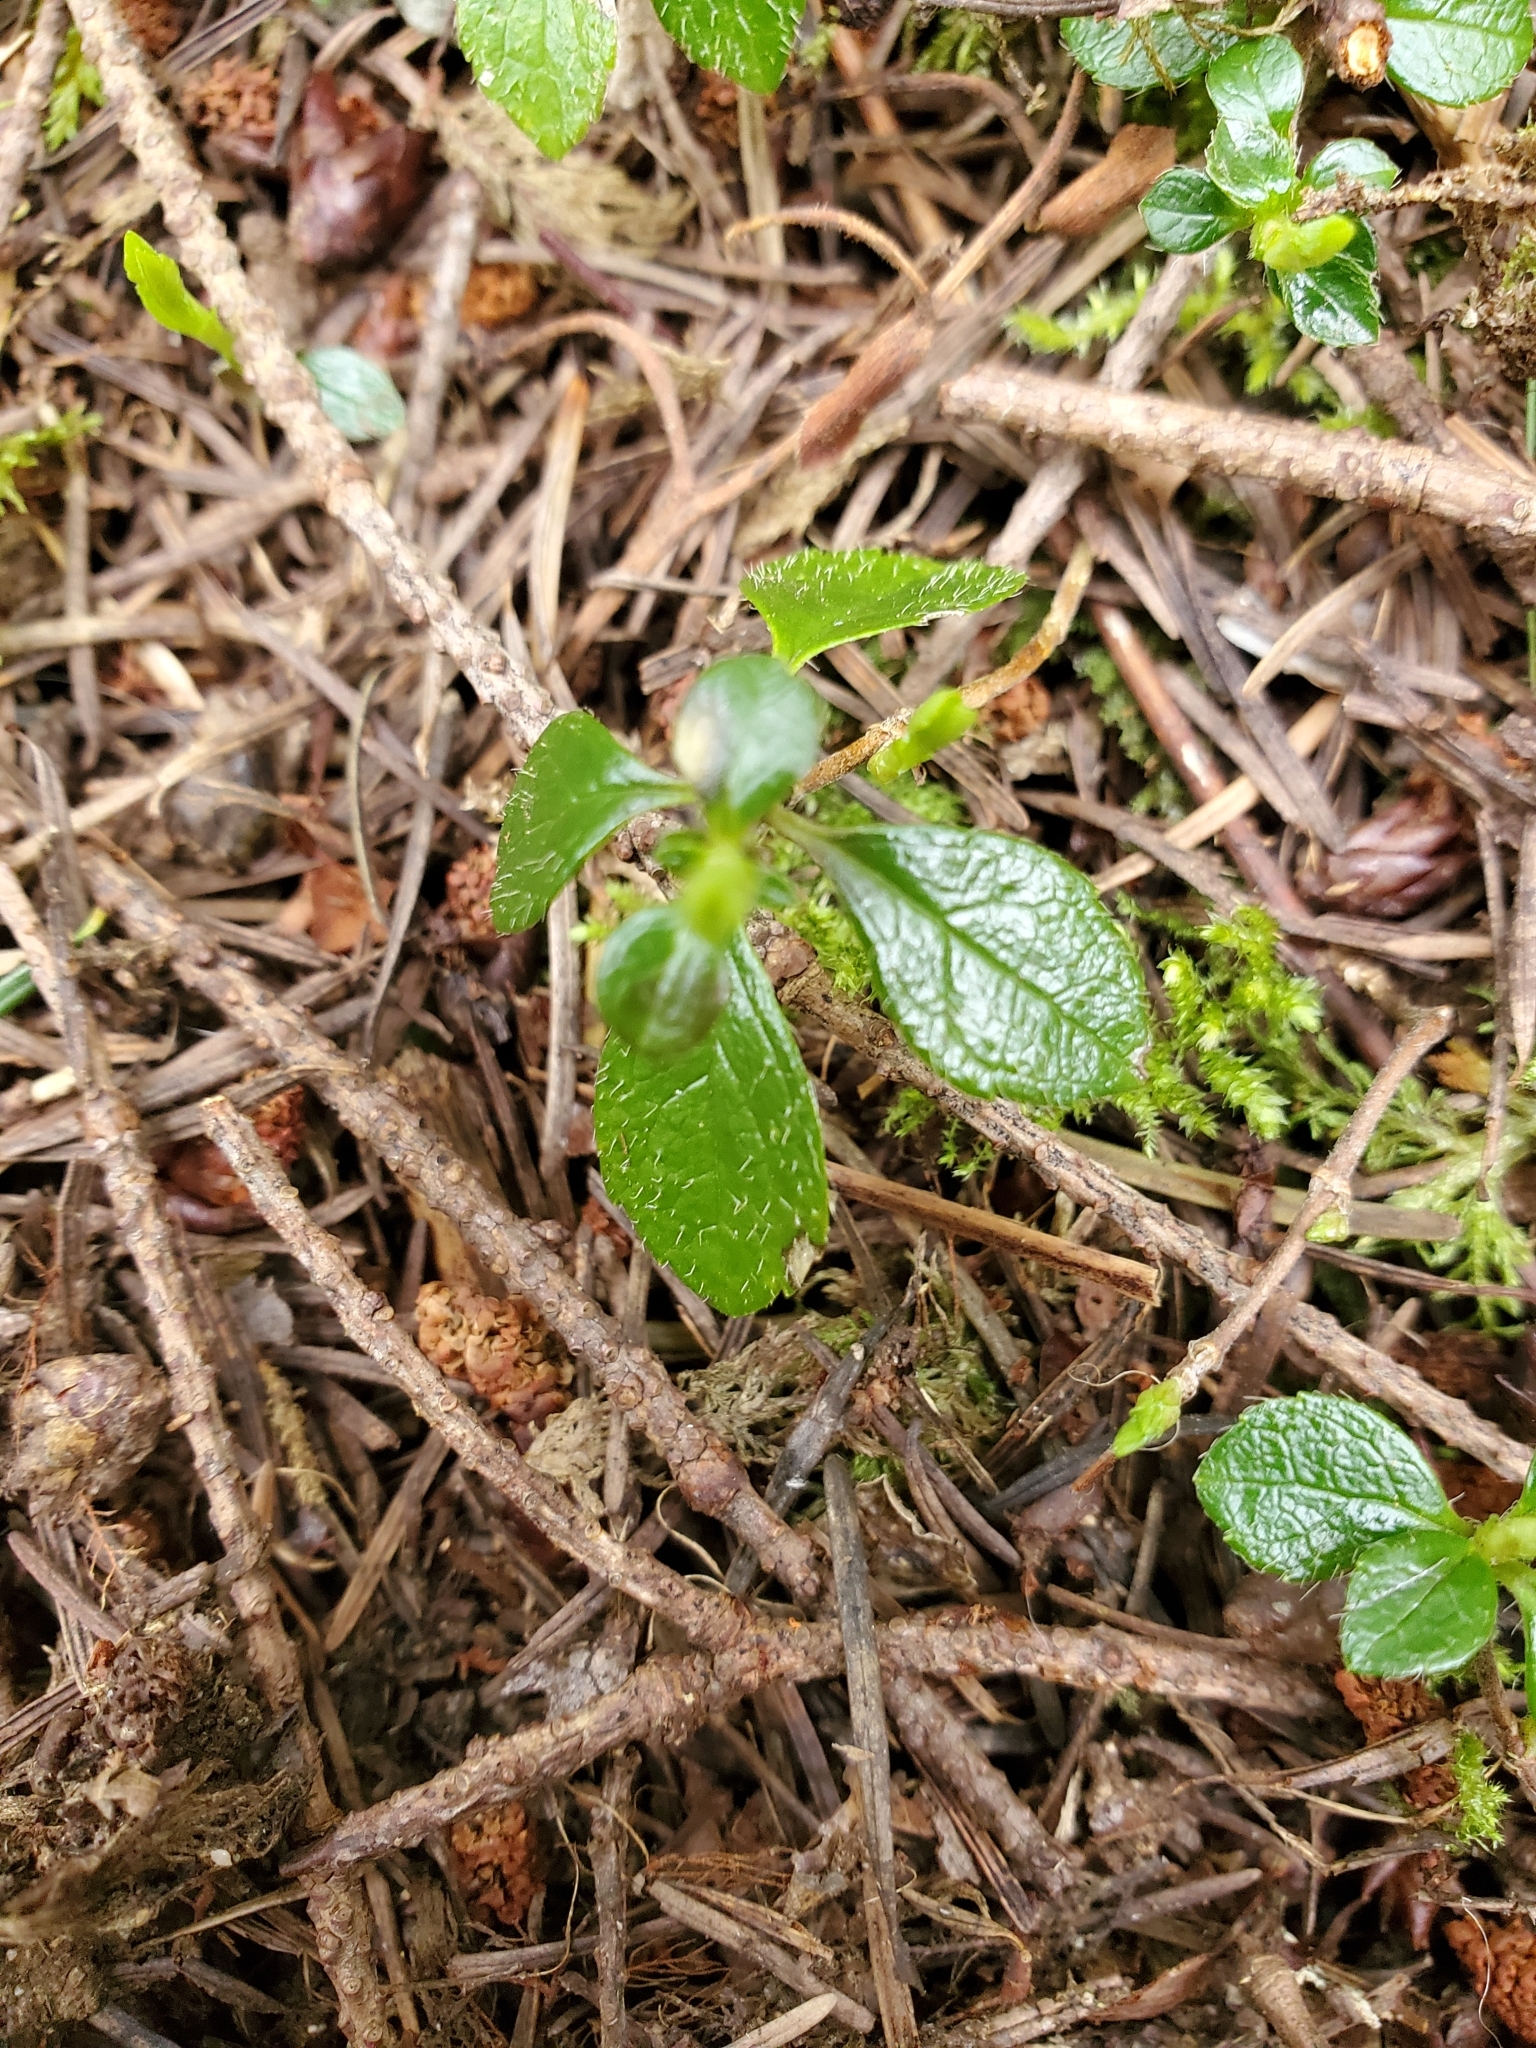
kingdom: Plantae
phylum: Tracheophyta
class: Magnoliopsida
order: Dipsacales
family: Caprifoliaceae
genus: Linnaea
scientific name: Linnaea borealis
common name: Twinflower
